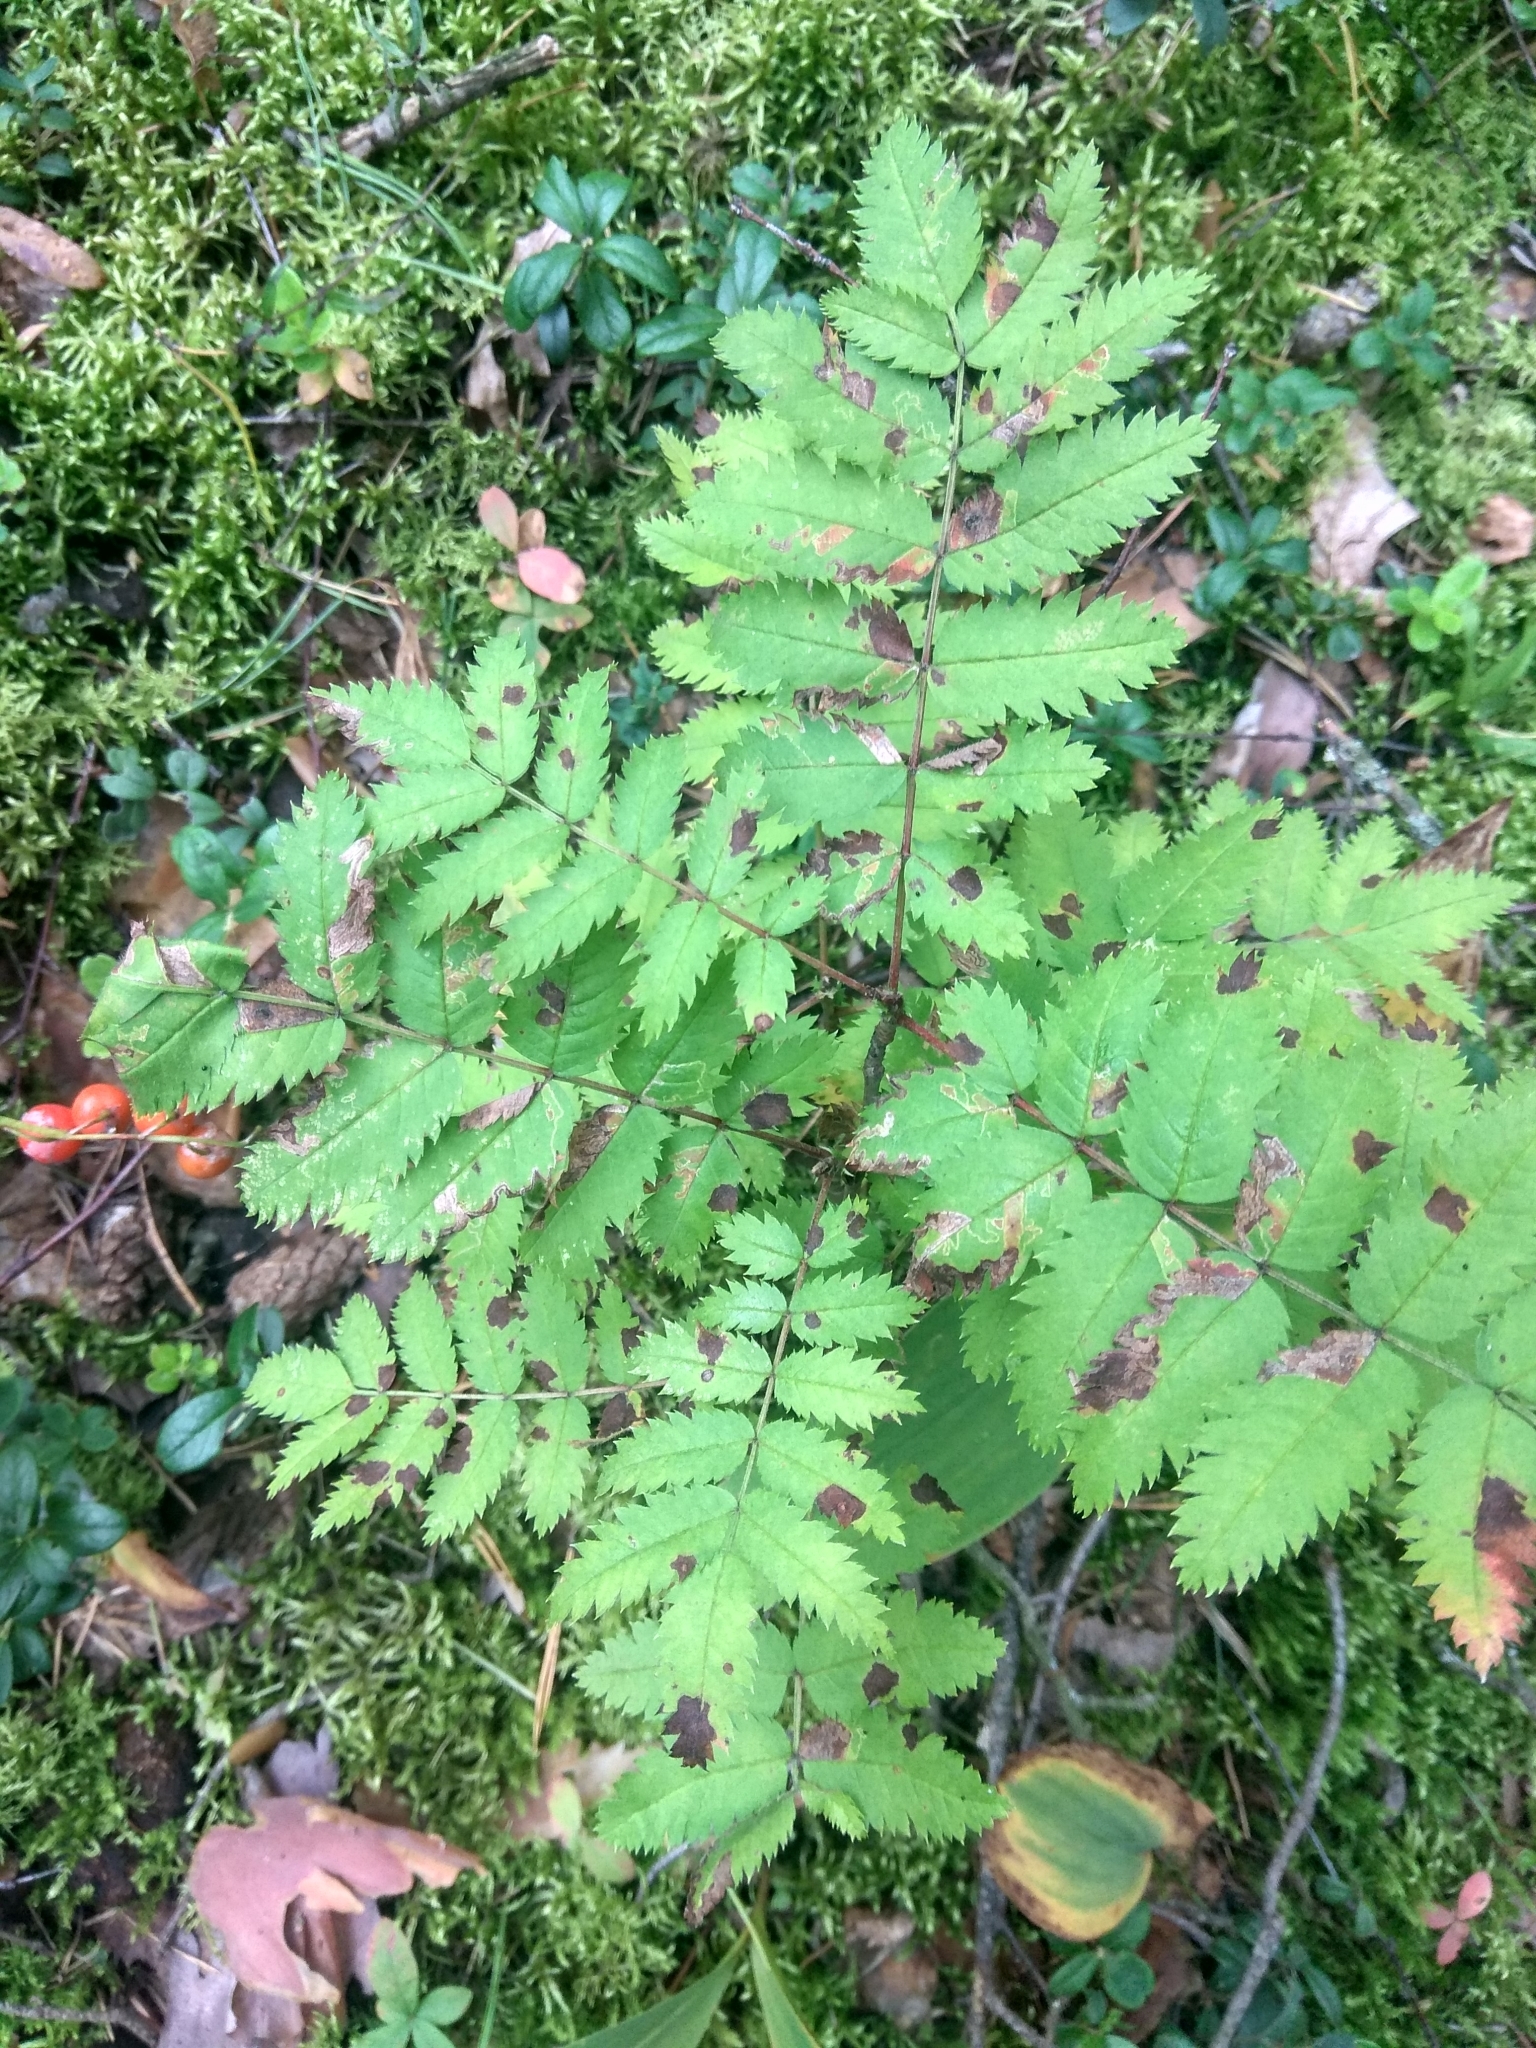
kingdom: Plantae
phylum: Tracheophyta
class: Magnoliopsida
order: Rosales
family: Rosaceae
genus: Sorbus
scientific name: Sorbus aucuparia
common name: Rowan
